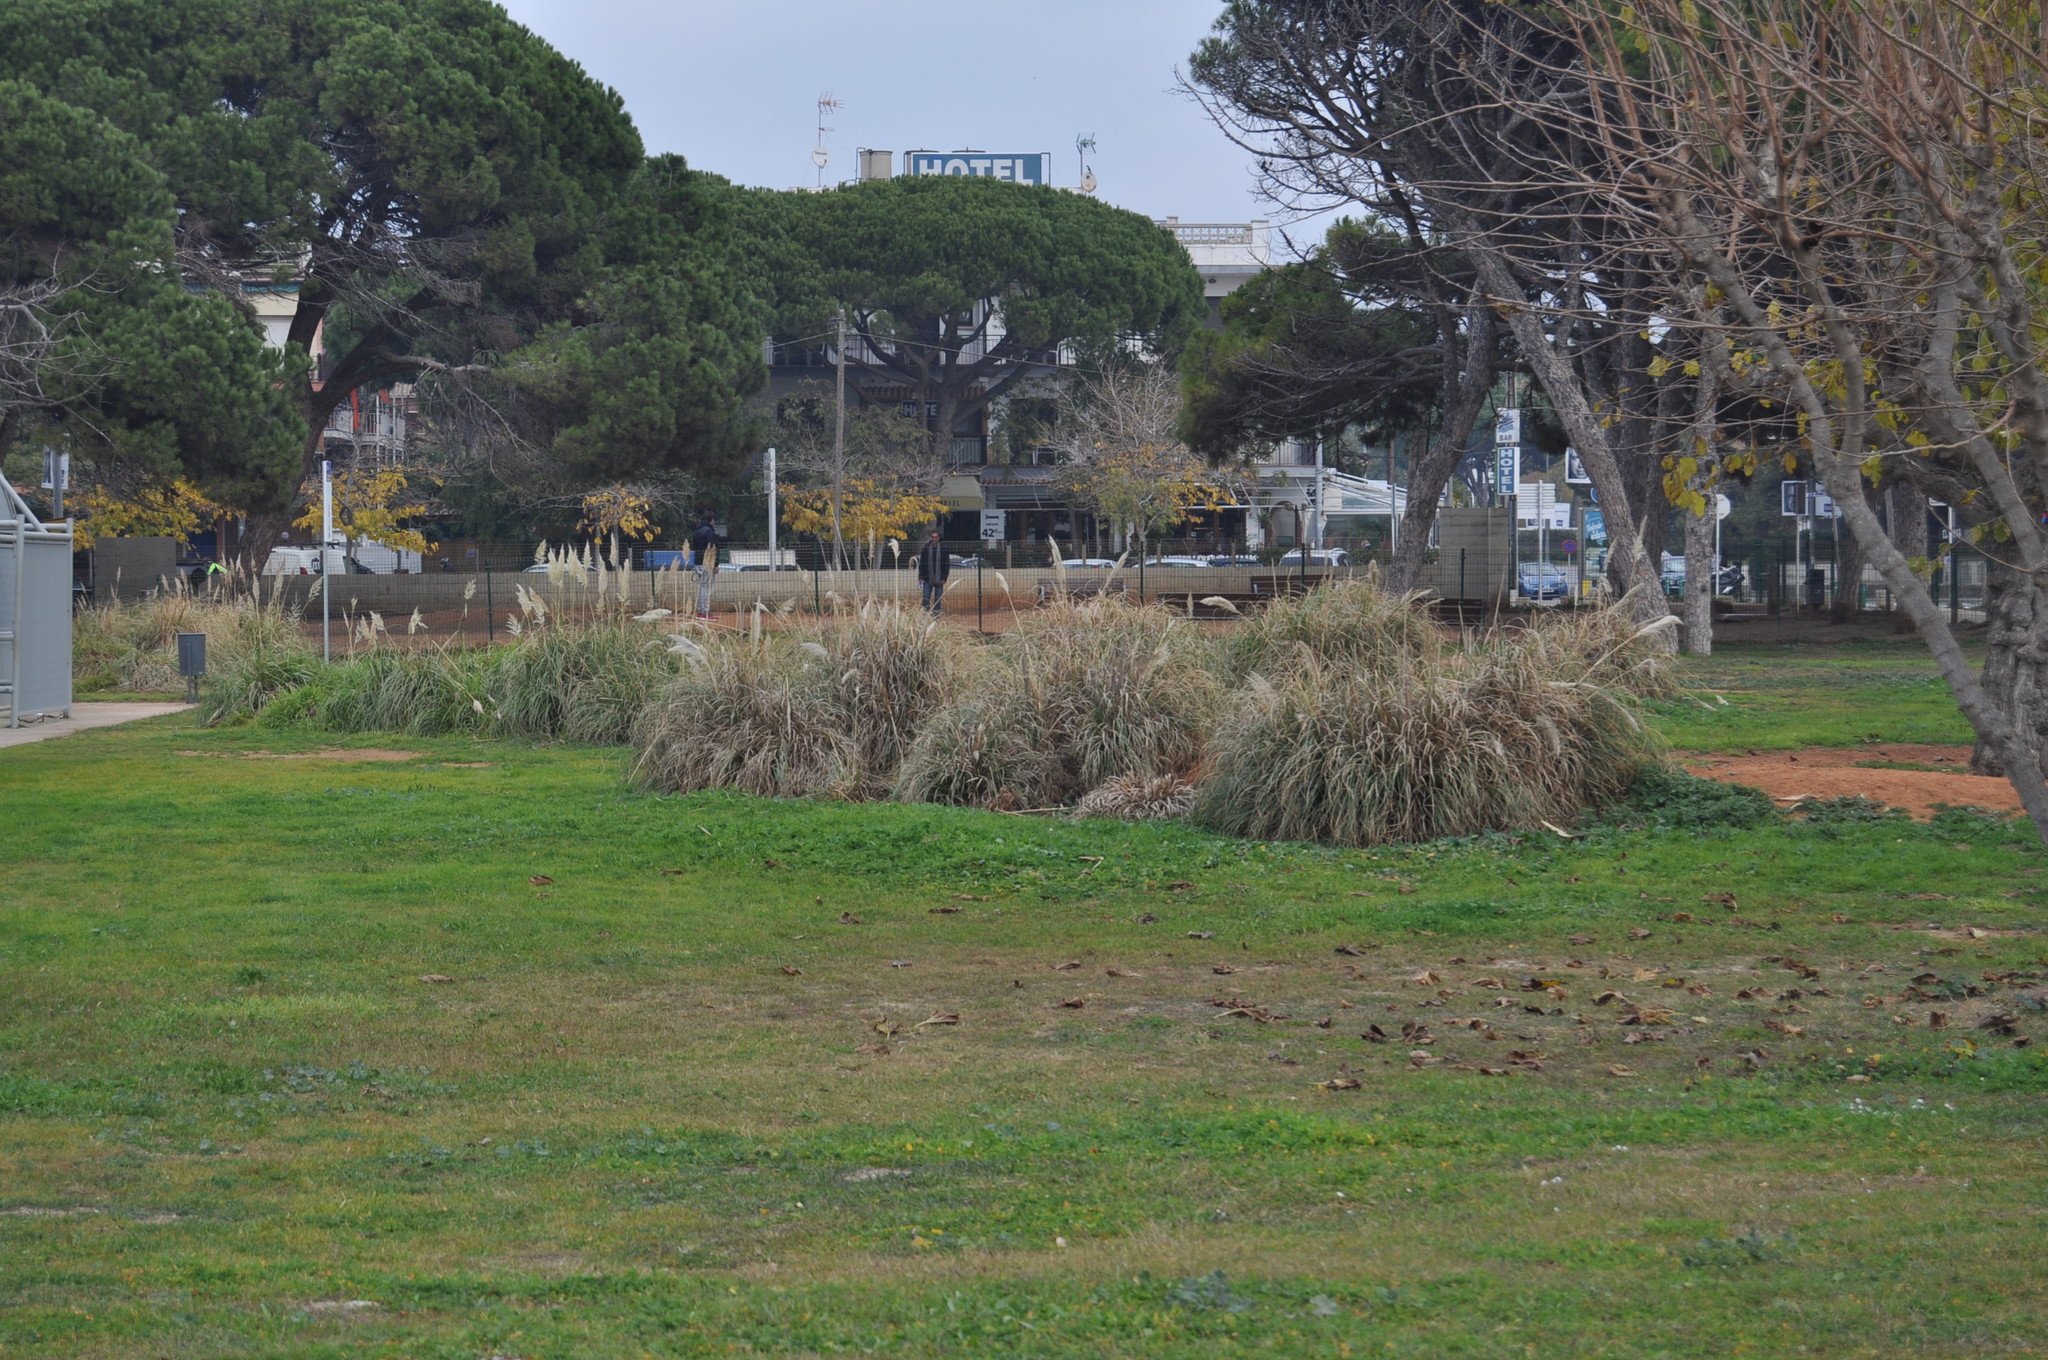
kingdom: Plantae
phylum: Tracheophyta
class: Liliopsida
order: Poales
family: Poaceae
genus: Cortaderia
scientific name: Cortaderia selloana
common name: Uruguayan pampas grass
